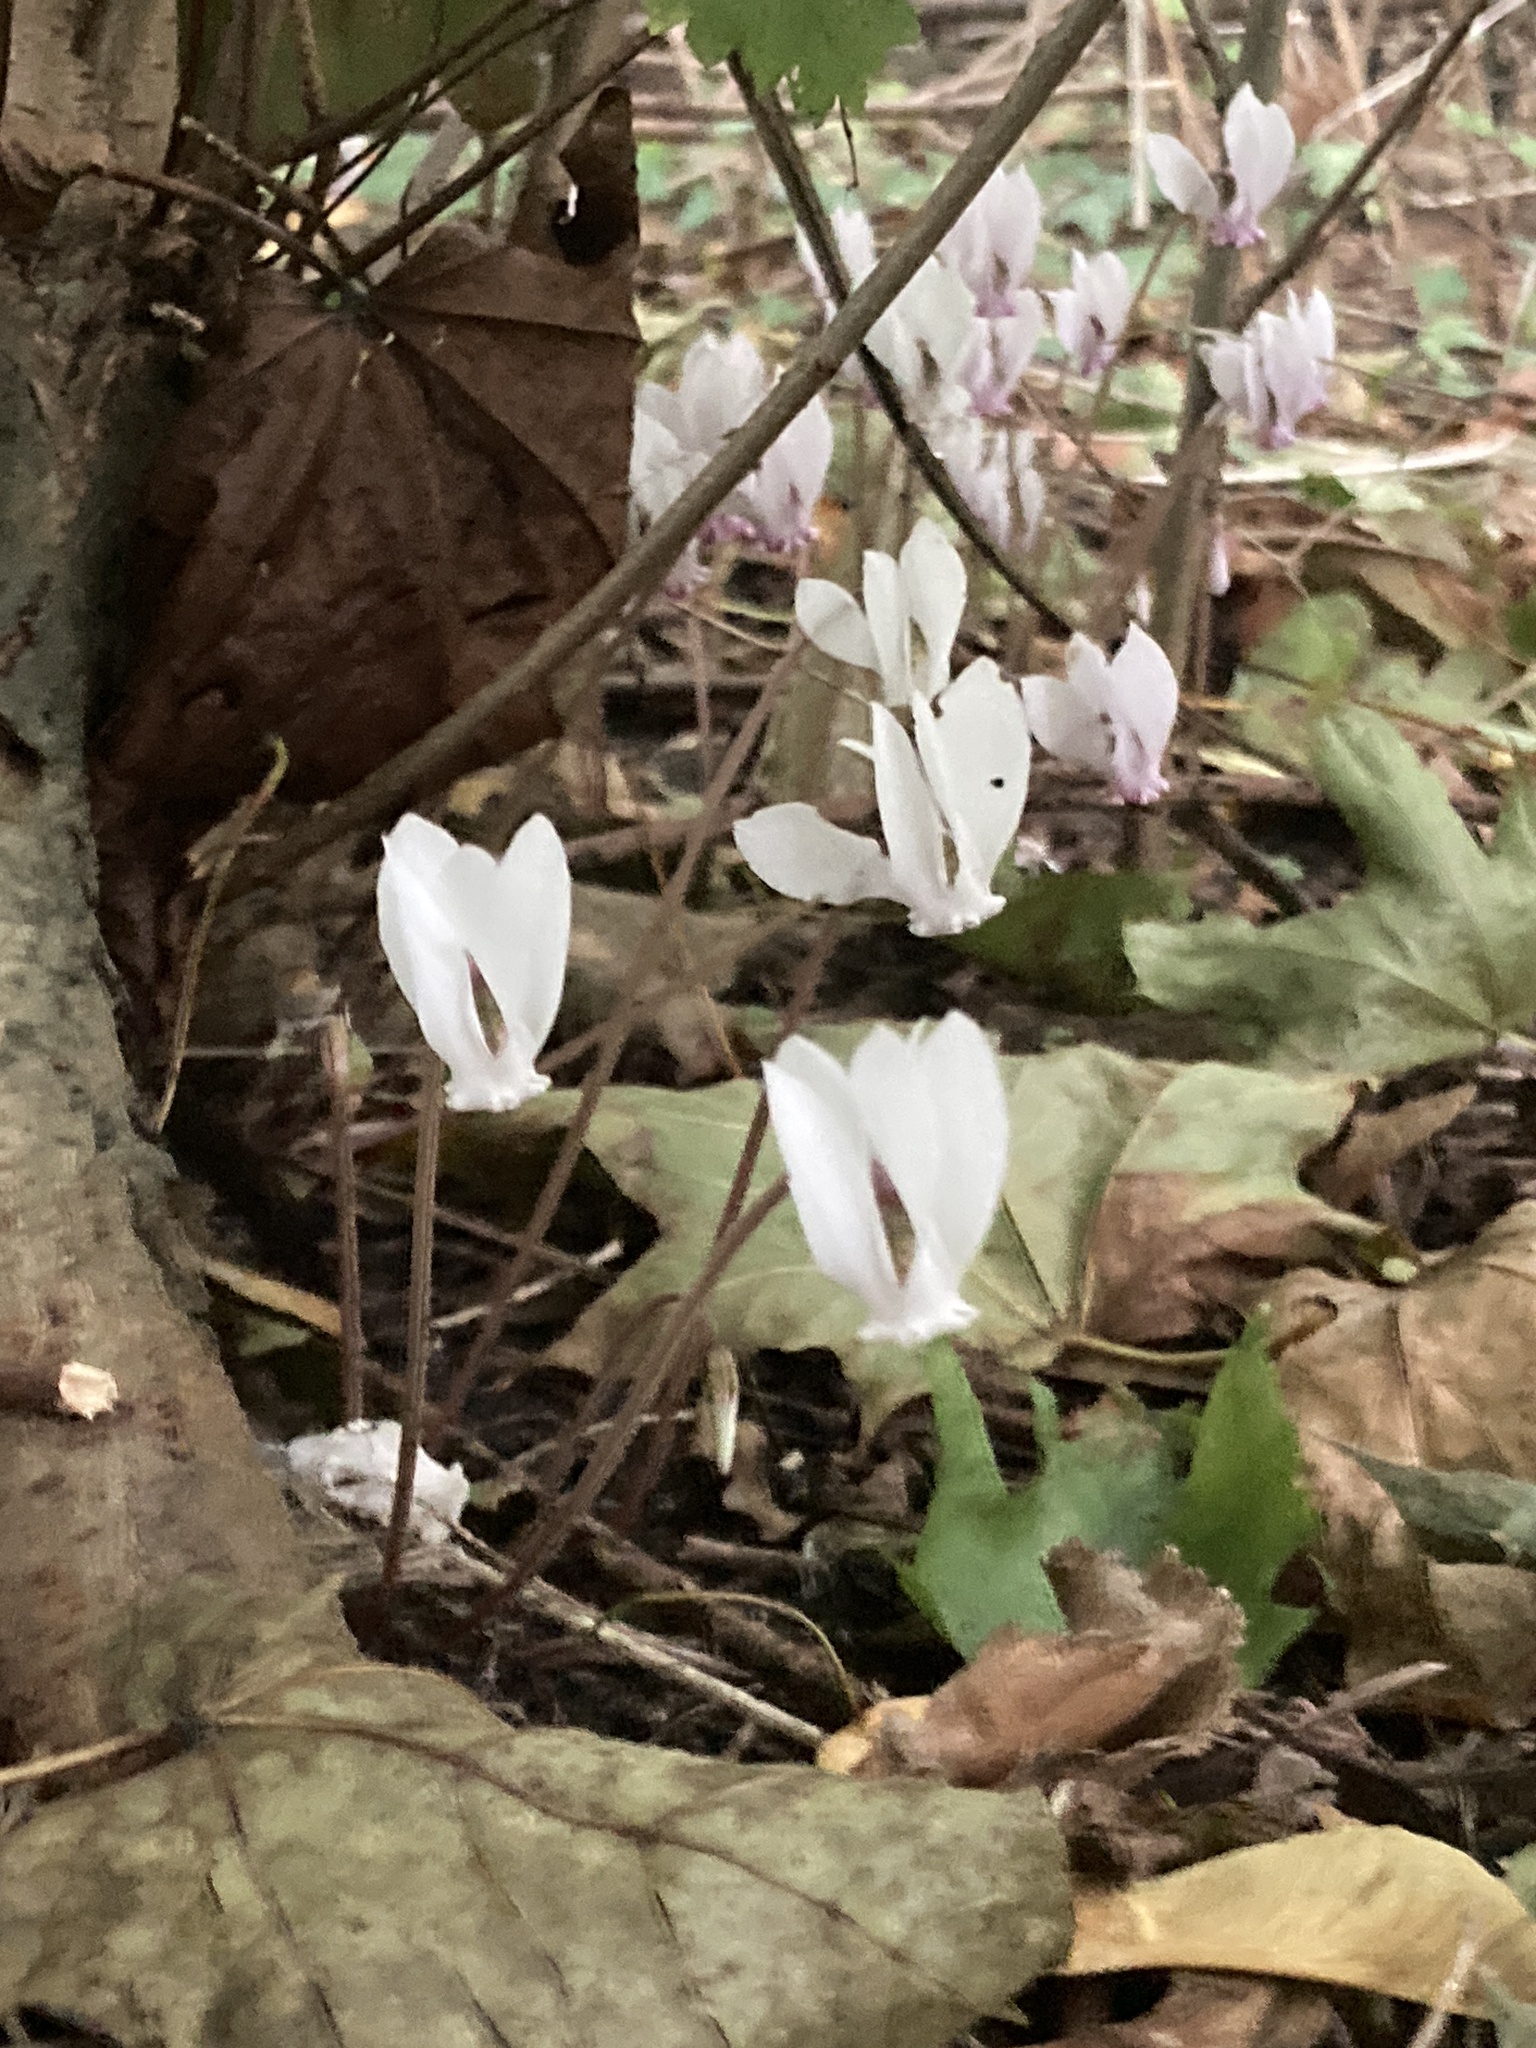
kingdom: Plantae
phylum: Tracheophyta
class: Magnoliopsida
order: Ericales
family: Primulaceae
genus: Cyclamen
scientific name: Cyclamen hederifolium
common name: Sowbread
